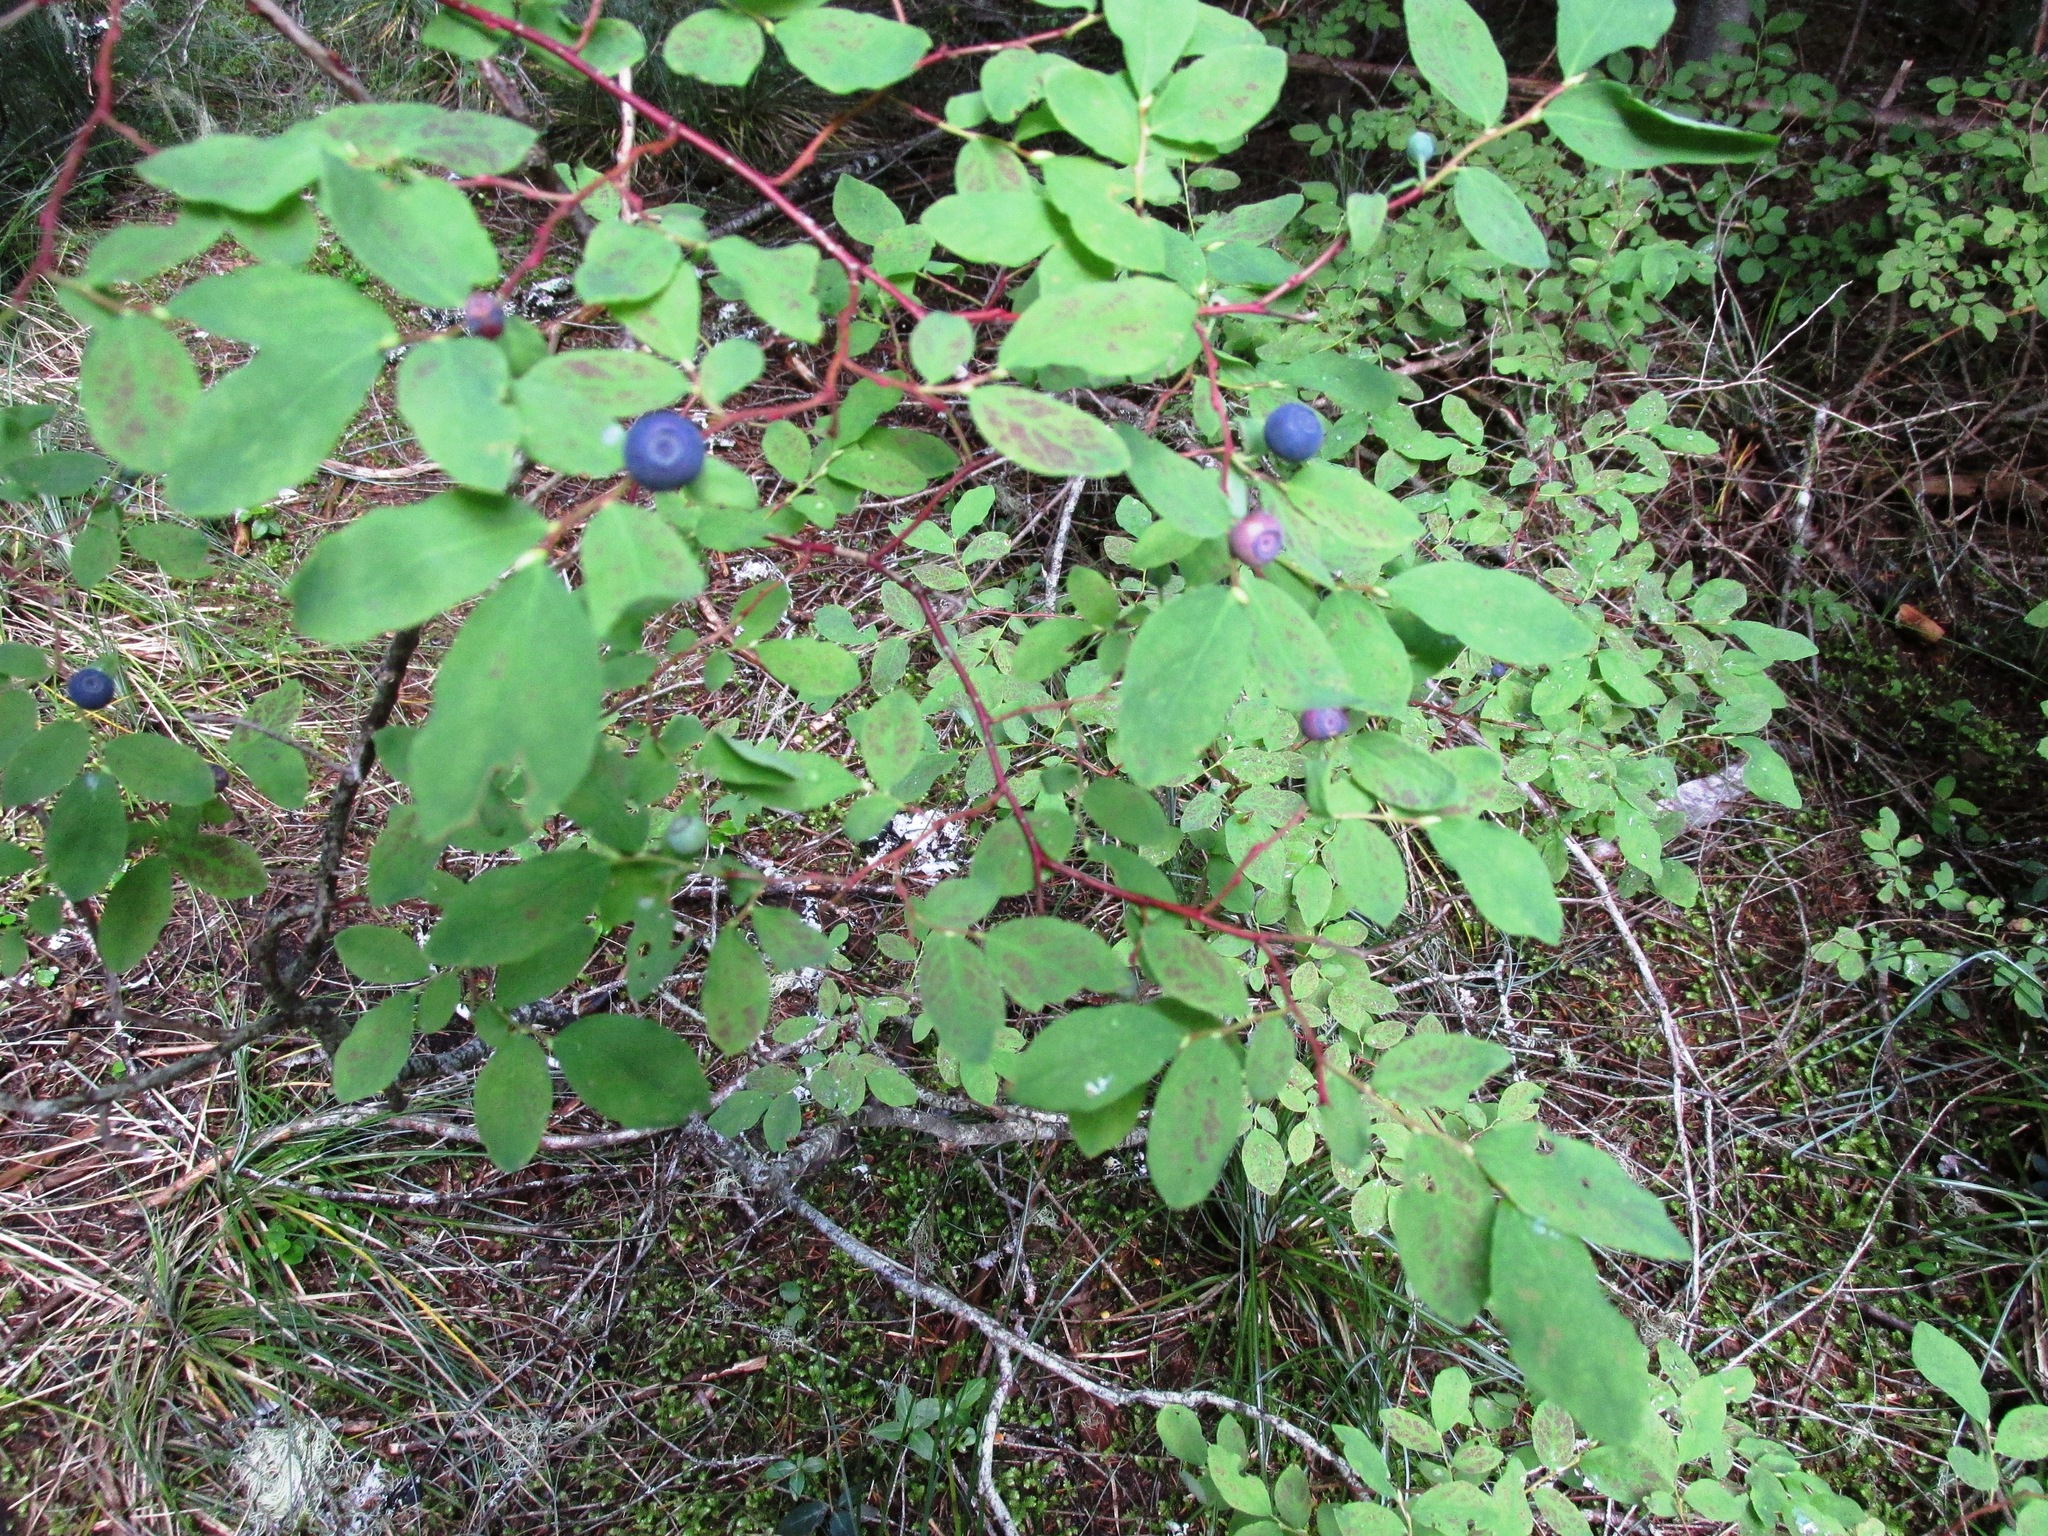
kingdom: Plantae
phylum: Tracheophyta
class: Magnoliopsida
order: Ericales
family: Ericaceae
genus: Vaccinium
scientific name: Vaccinium ovalifolium
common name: Early blueberry
